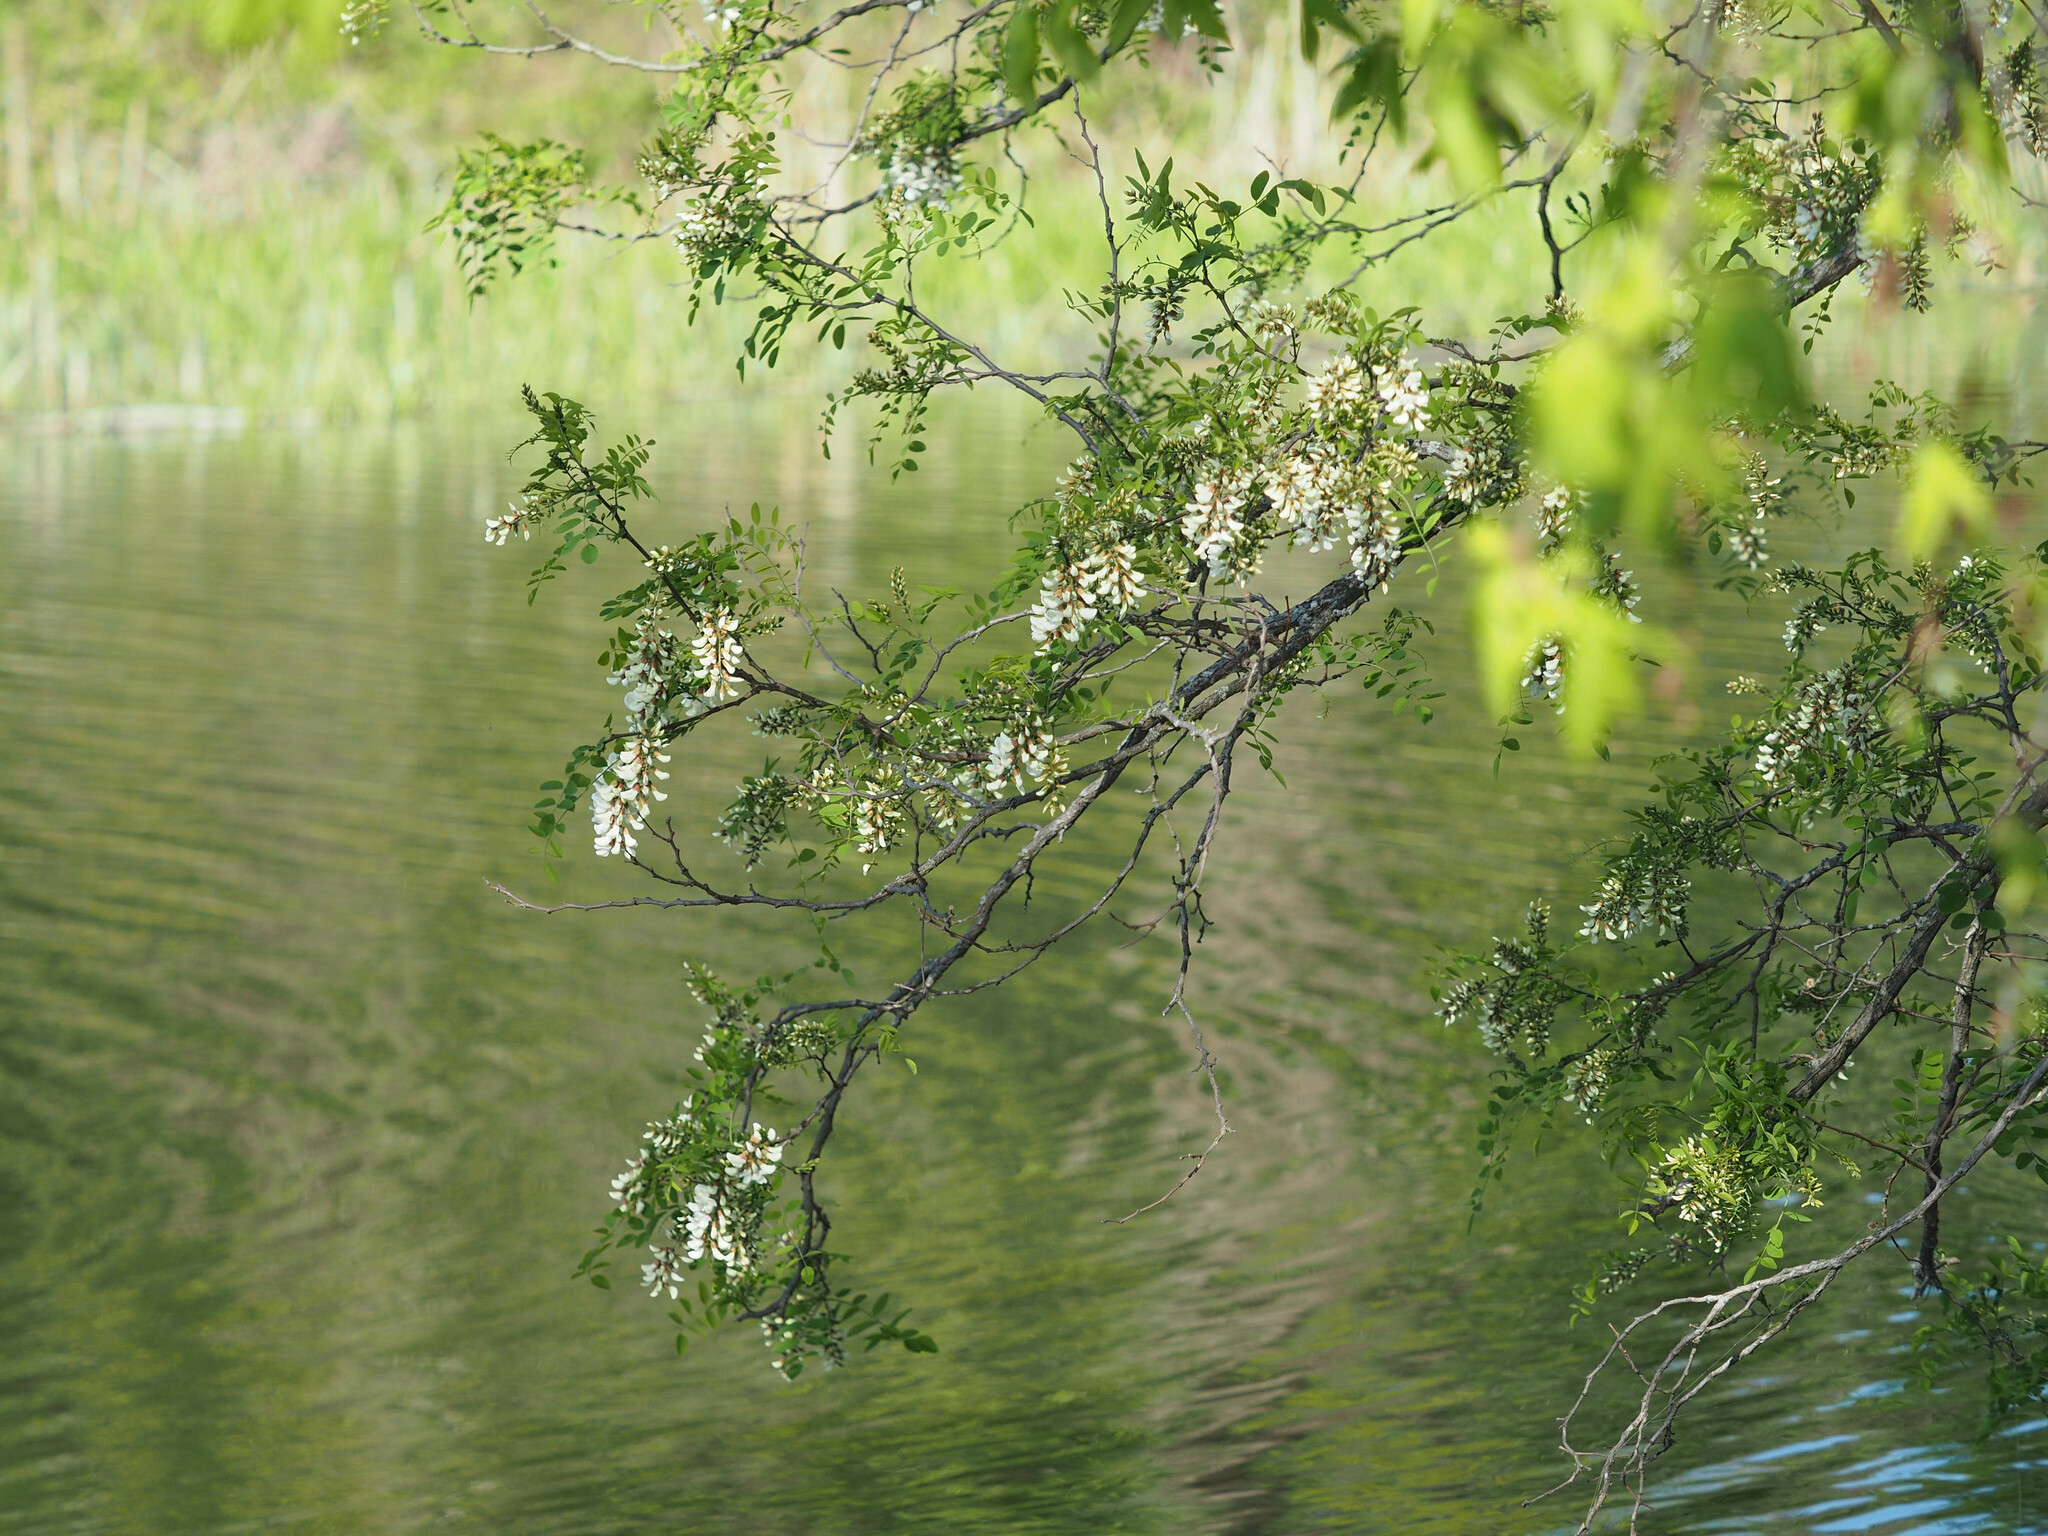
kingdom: Plantae
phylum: Tracheophyta
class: Magnoliopsida
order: Fabales
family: Fabaceae
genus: Robinia
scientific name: Robinia pseudoacacia
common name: Black locust
